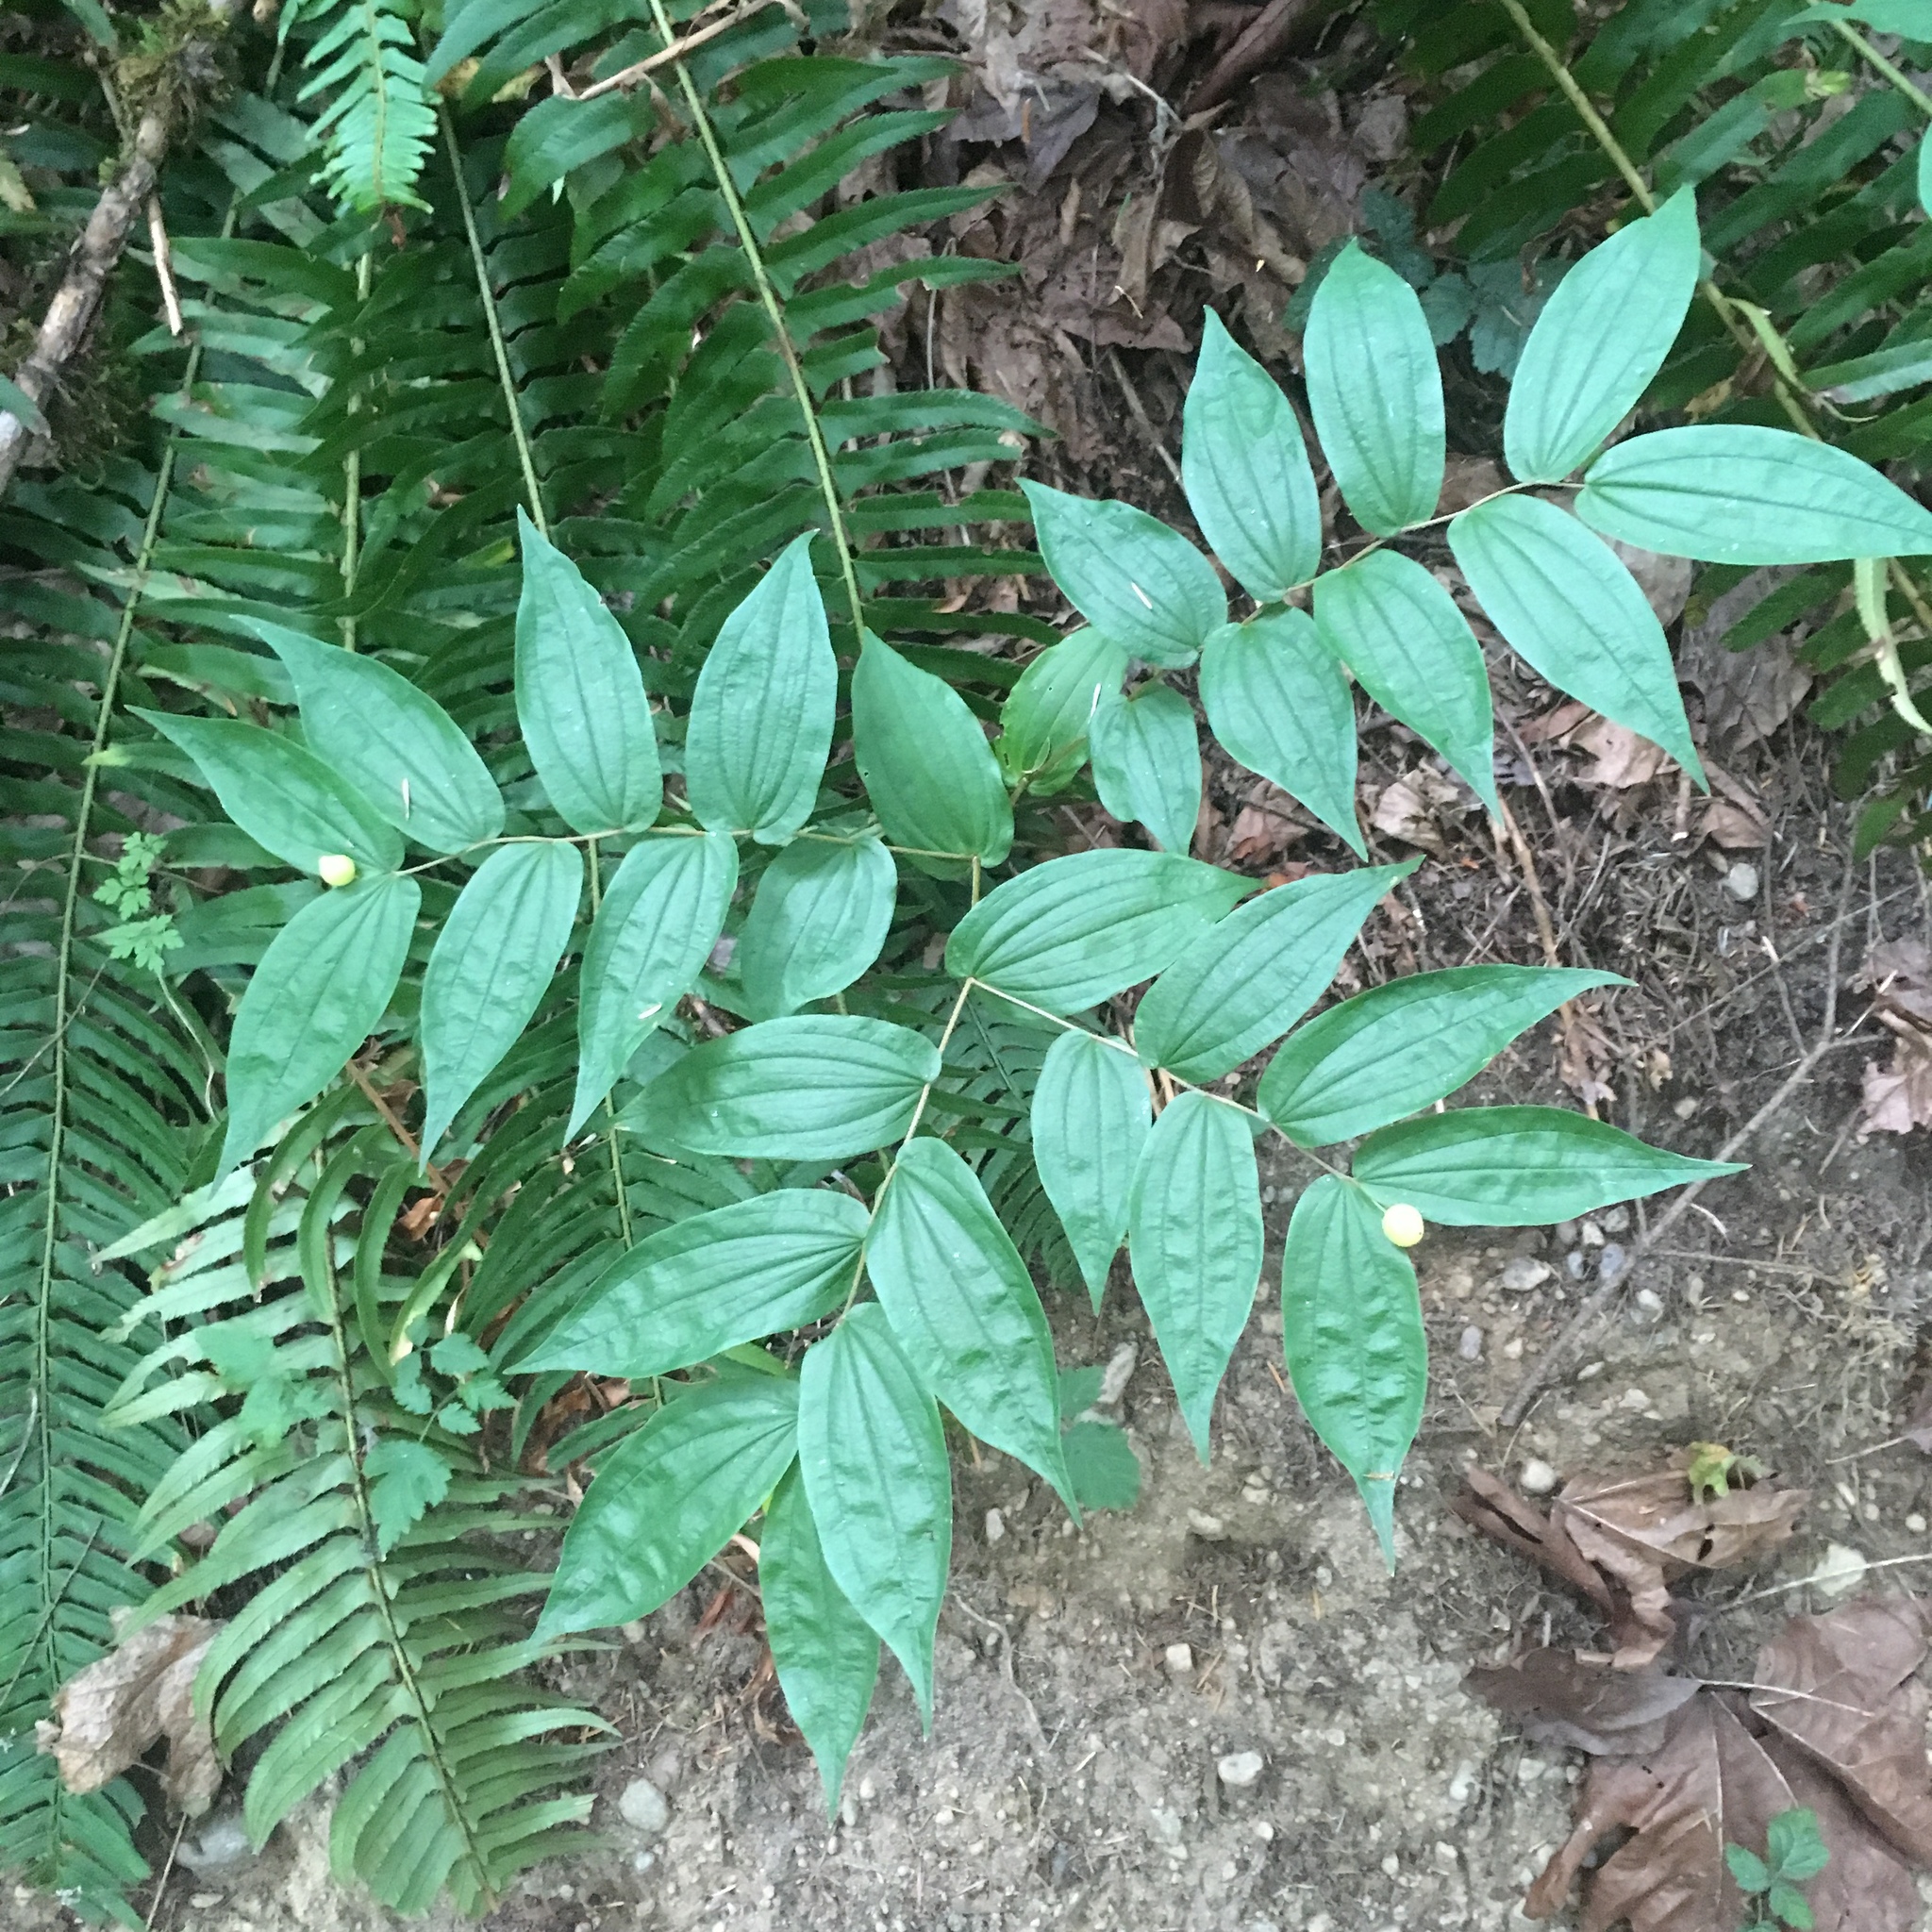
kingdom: Plantae
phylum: Tracheophyta
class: Liliopsida
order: Liliales
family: Liliaceae
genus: Prosartes
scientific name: Prosartes hookeri
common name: Fairy-bells
